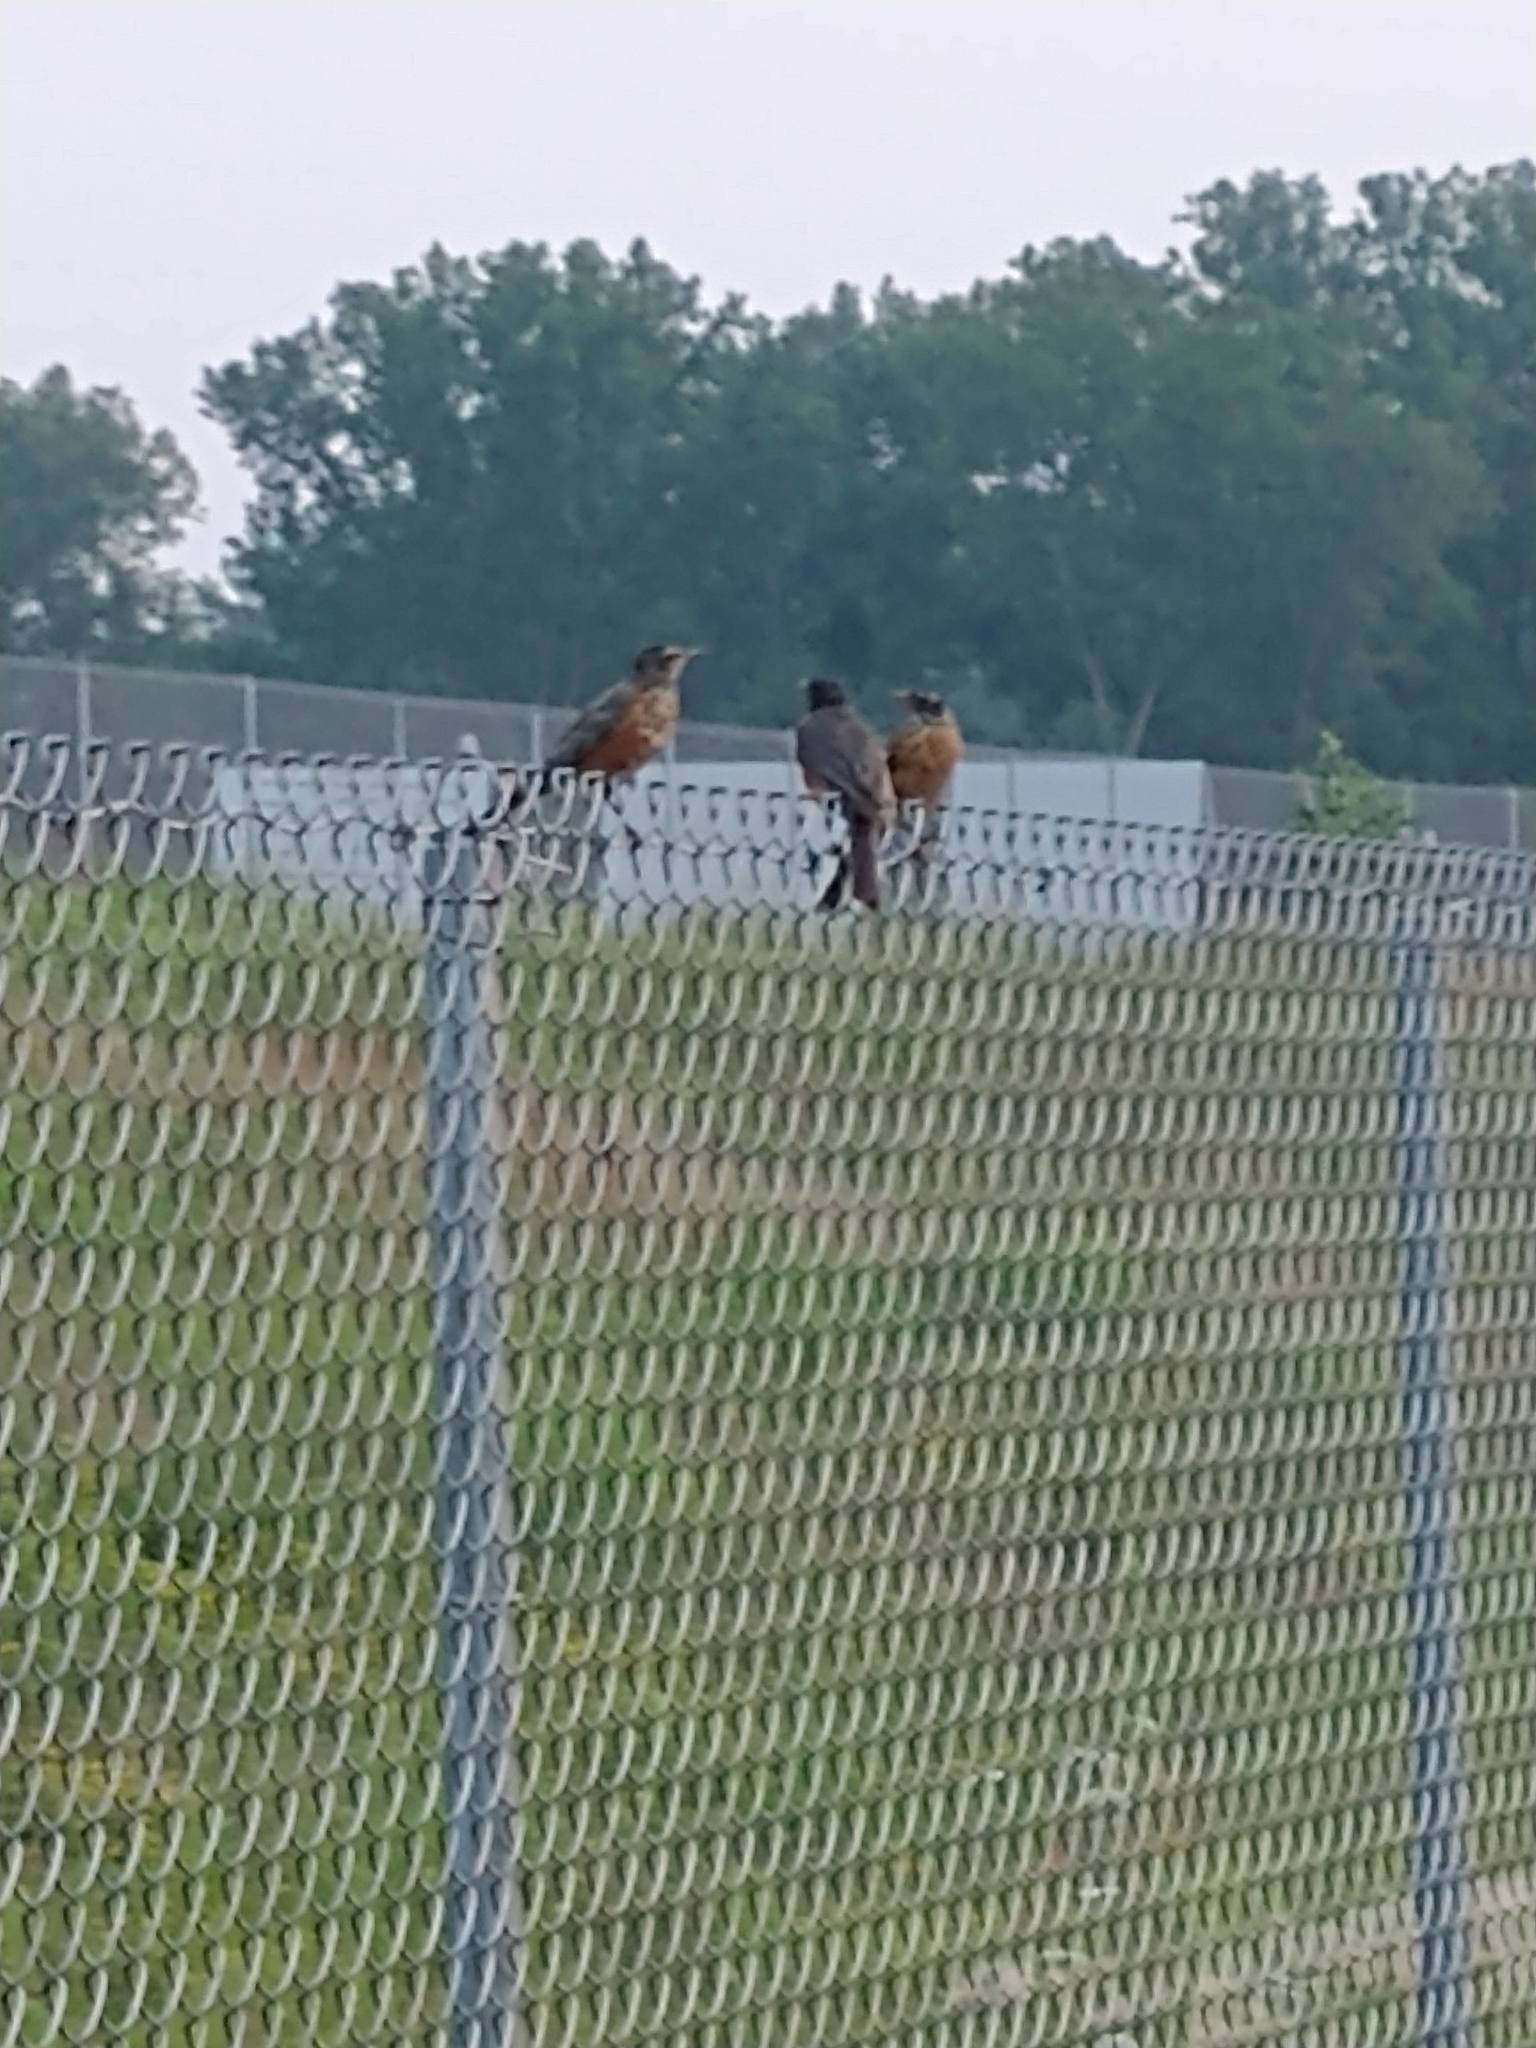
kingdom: Animalia
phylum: Chordata
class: Aves
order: Passeriformes
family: Turdidae
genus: Turdus
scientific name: Turdus migratorius
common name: American robin
